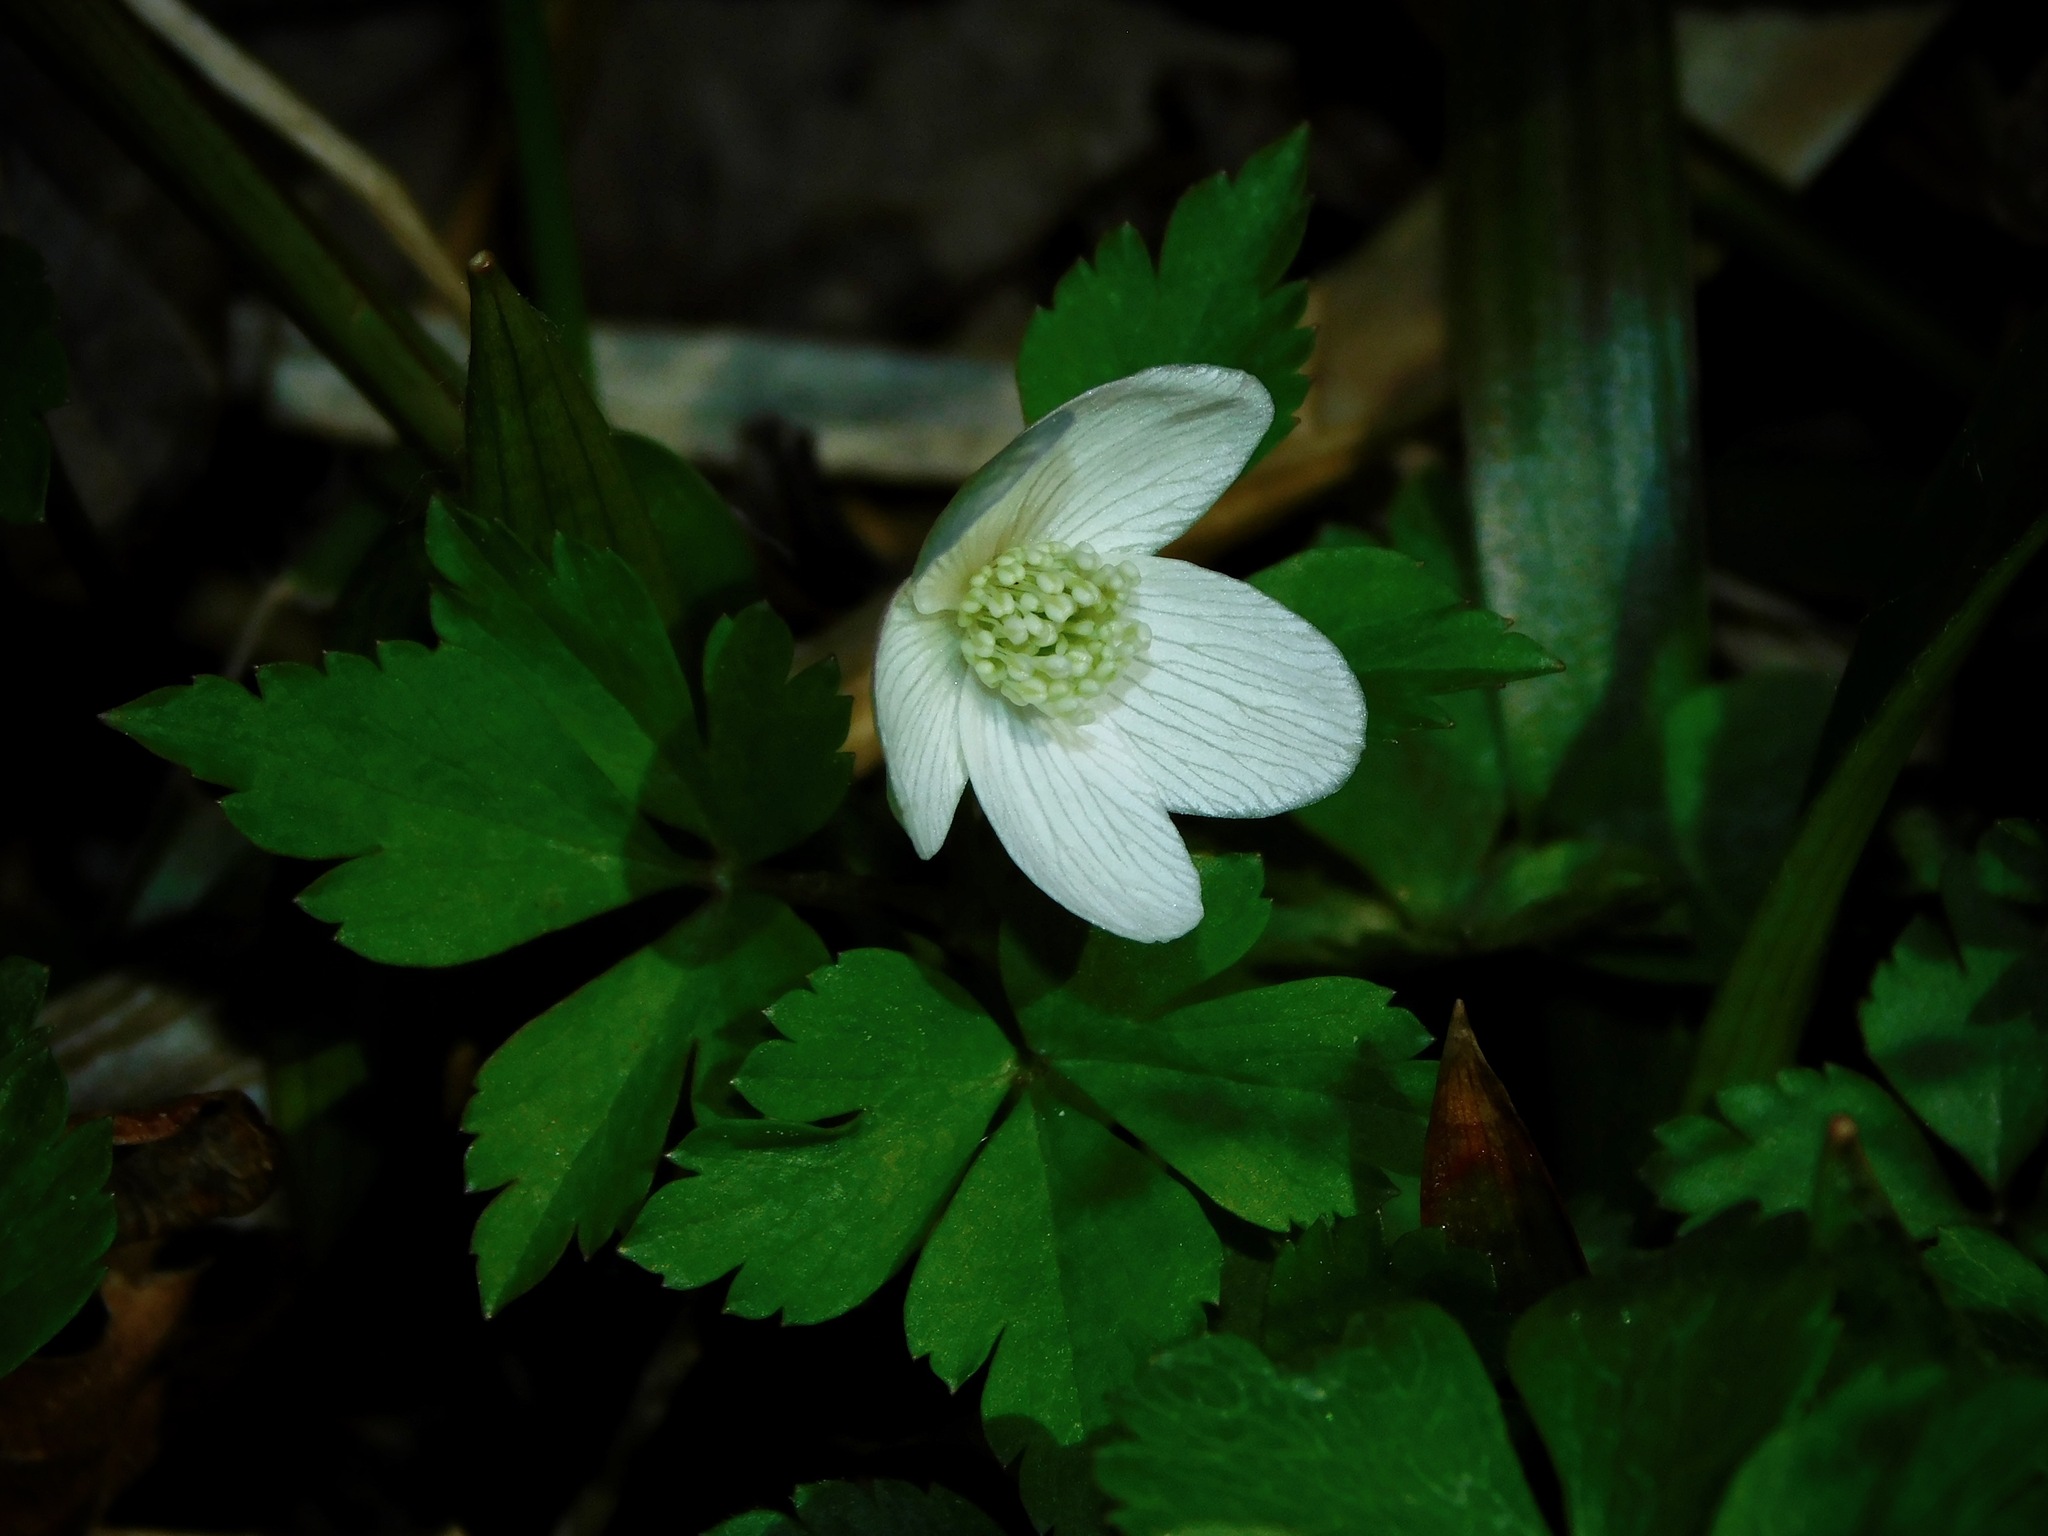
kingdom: Plantae
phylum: Tracheophyta
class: Magnoliopsida
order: Ranunculales
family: Ranunculaceae
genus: Anemone
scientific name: Anemone quinquefolia
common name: Wood anemone
